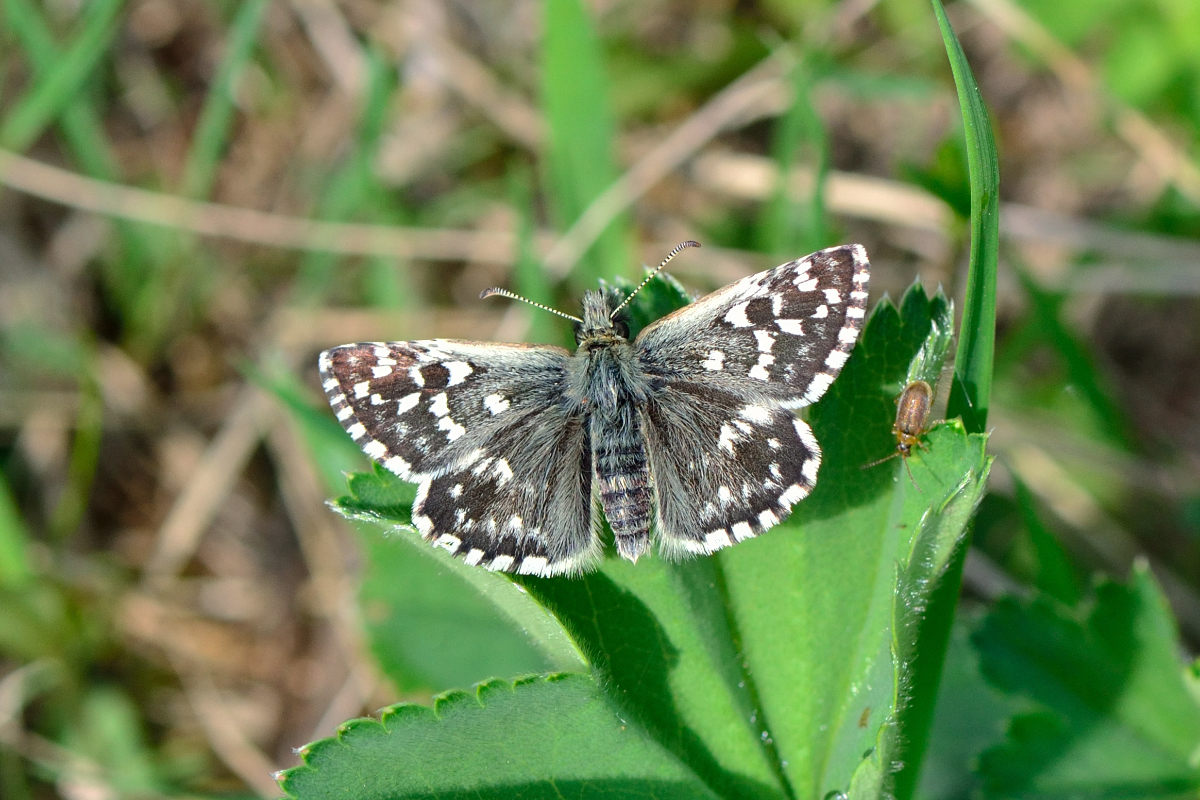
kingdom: Animalia
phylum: Arthropoda
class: Insecta
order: Lepidoptera
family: Hesperiidae
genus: Pyrgus
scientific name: Pyrgus malvae
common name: Grizzled skipper
